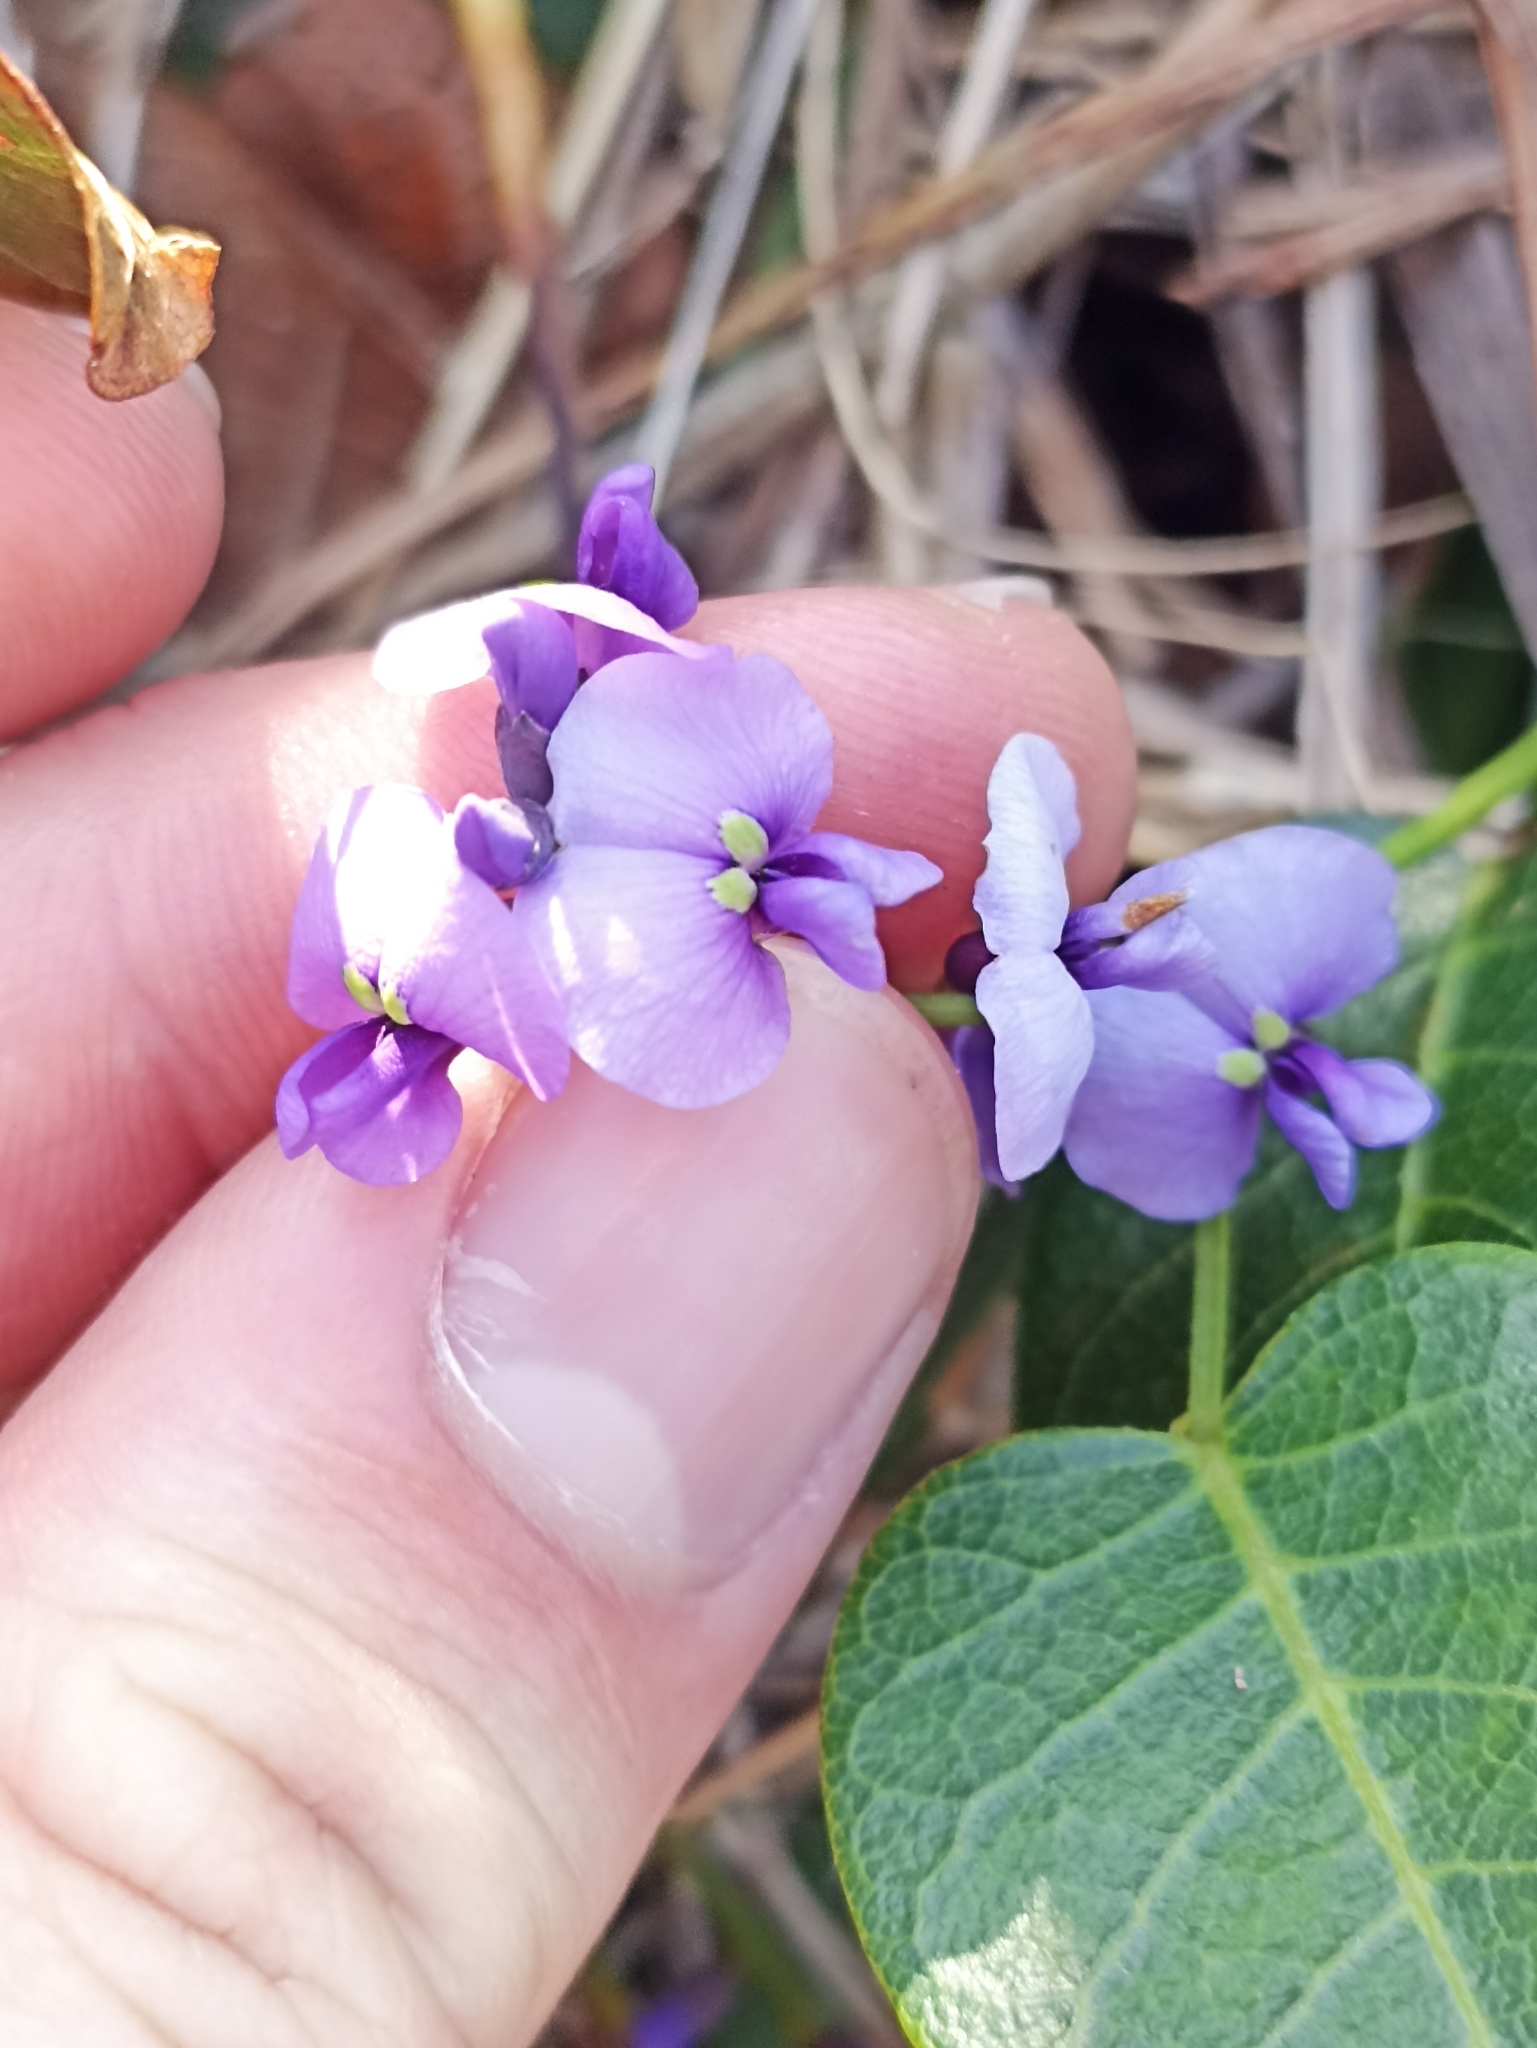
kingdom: Plantae
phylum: Tracheophyta
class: Magnoliopsida
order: Fabales
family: Fabaceae
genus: Hardenbergia
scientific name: Hardenbergia violacea
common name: Coral-pea
